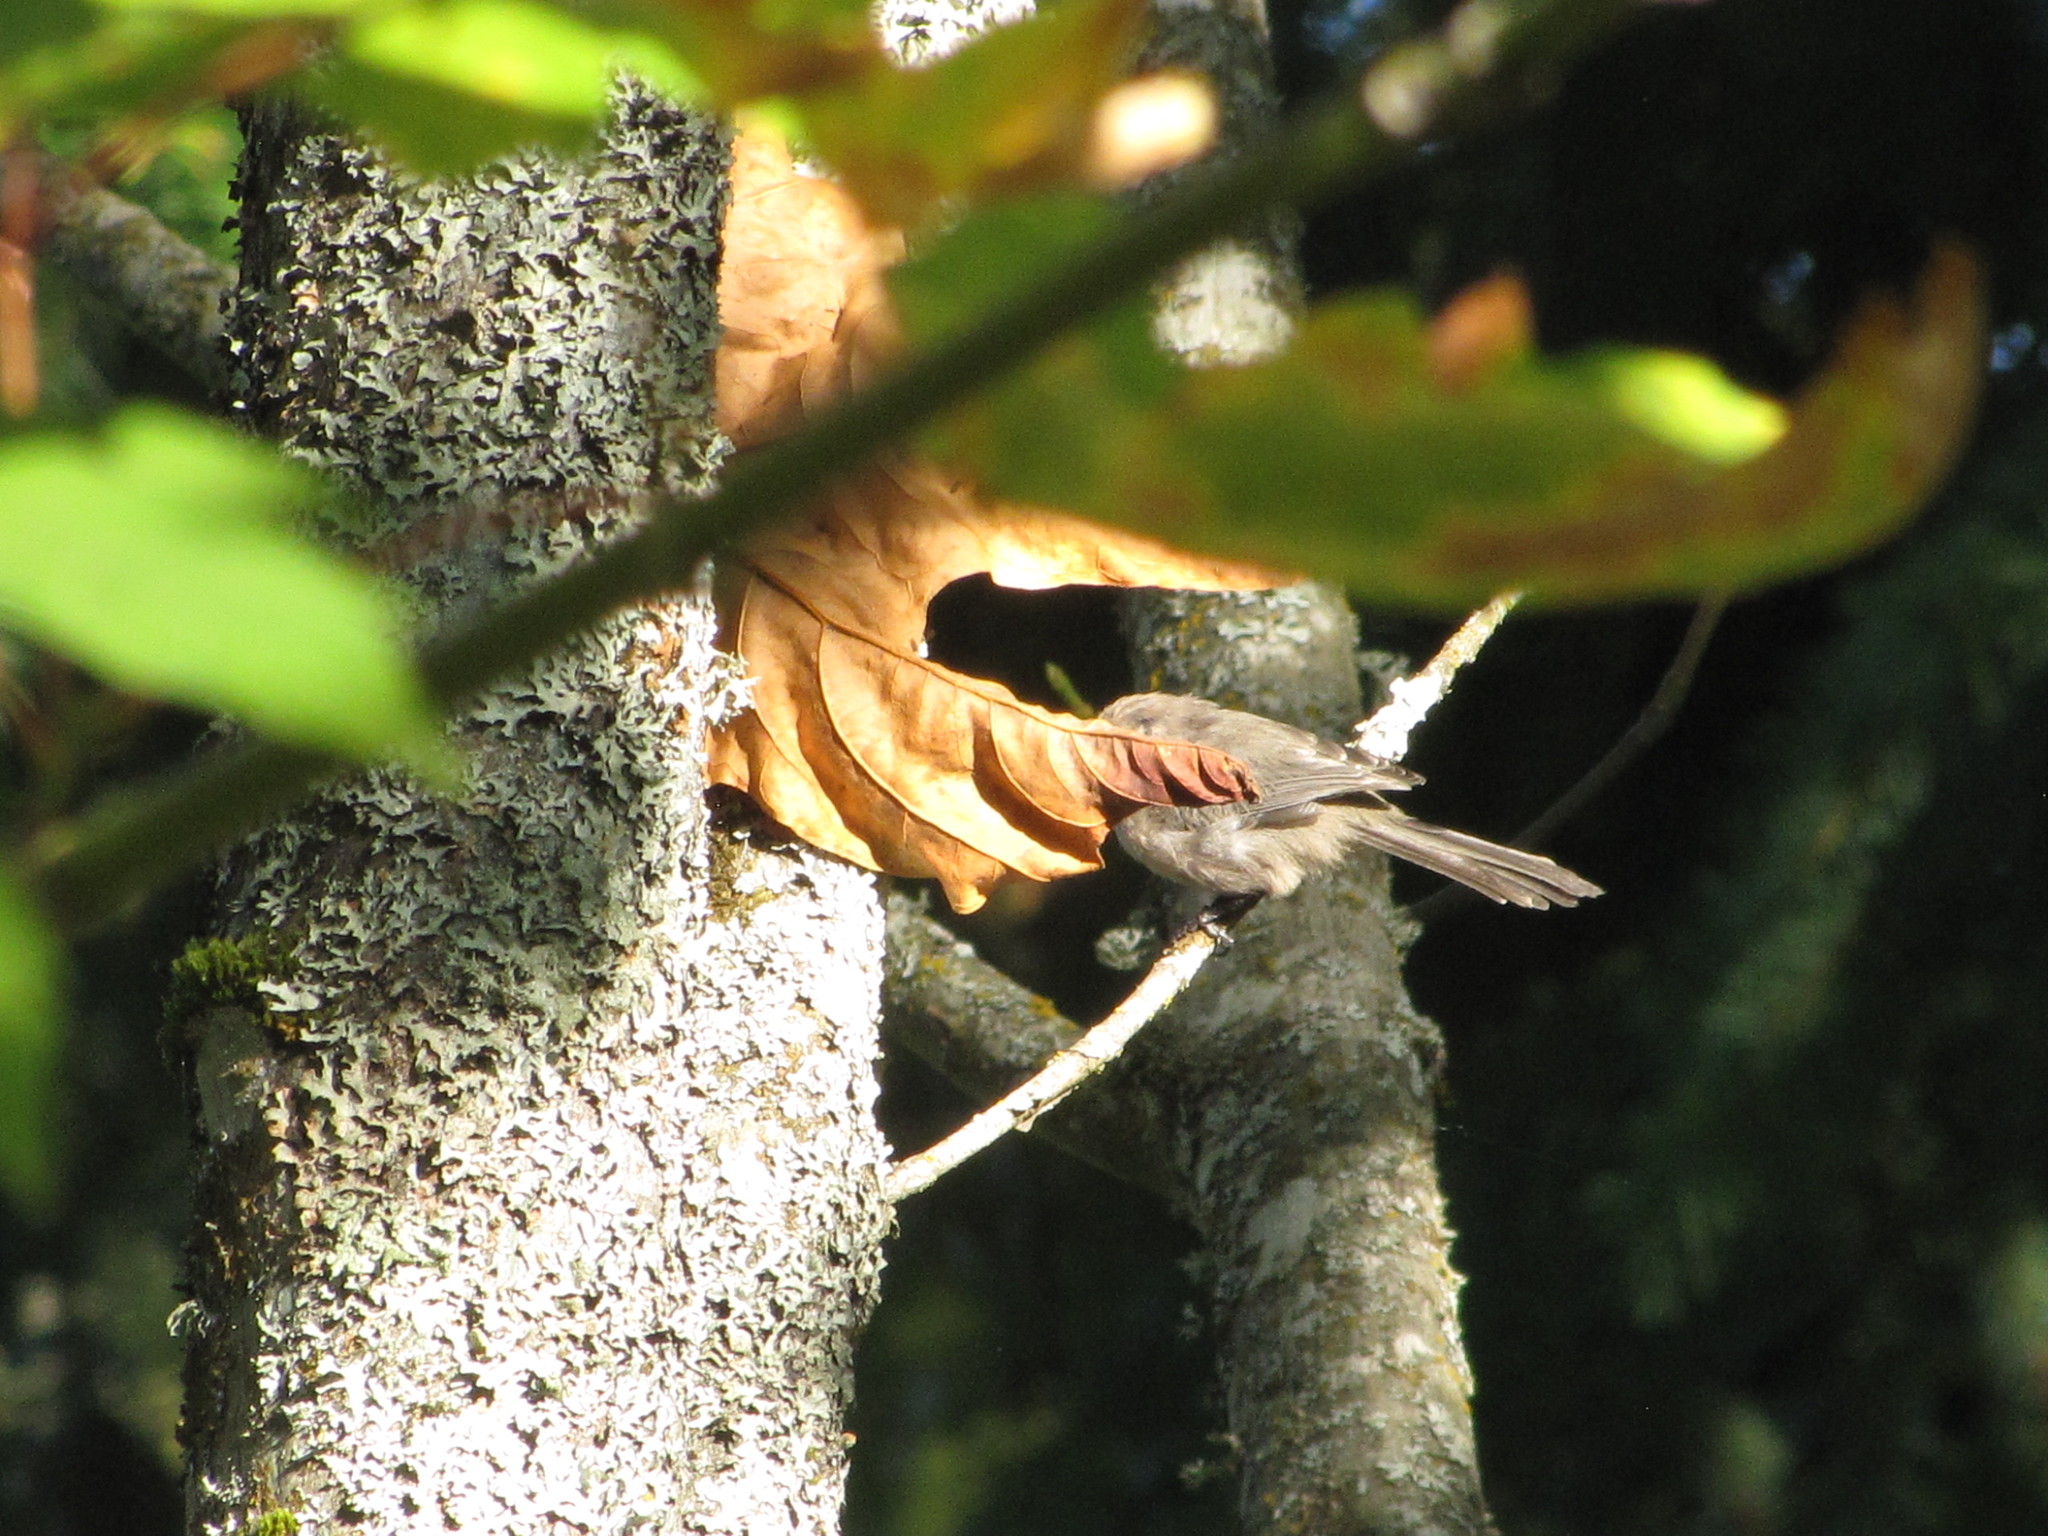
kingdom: Animalia
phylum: Chordata
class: Aves
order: Passeriformes
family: Aegithalidae
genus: Psaltriparus
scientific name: Psaltriparus minimus
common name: American bushtit
